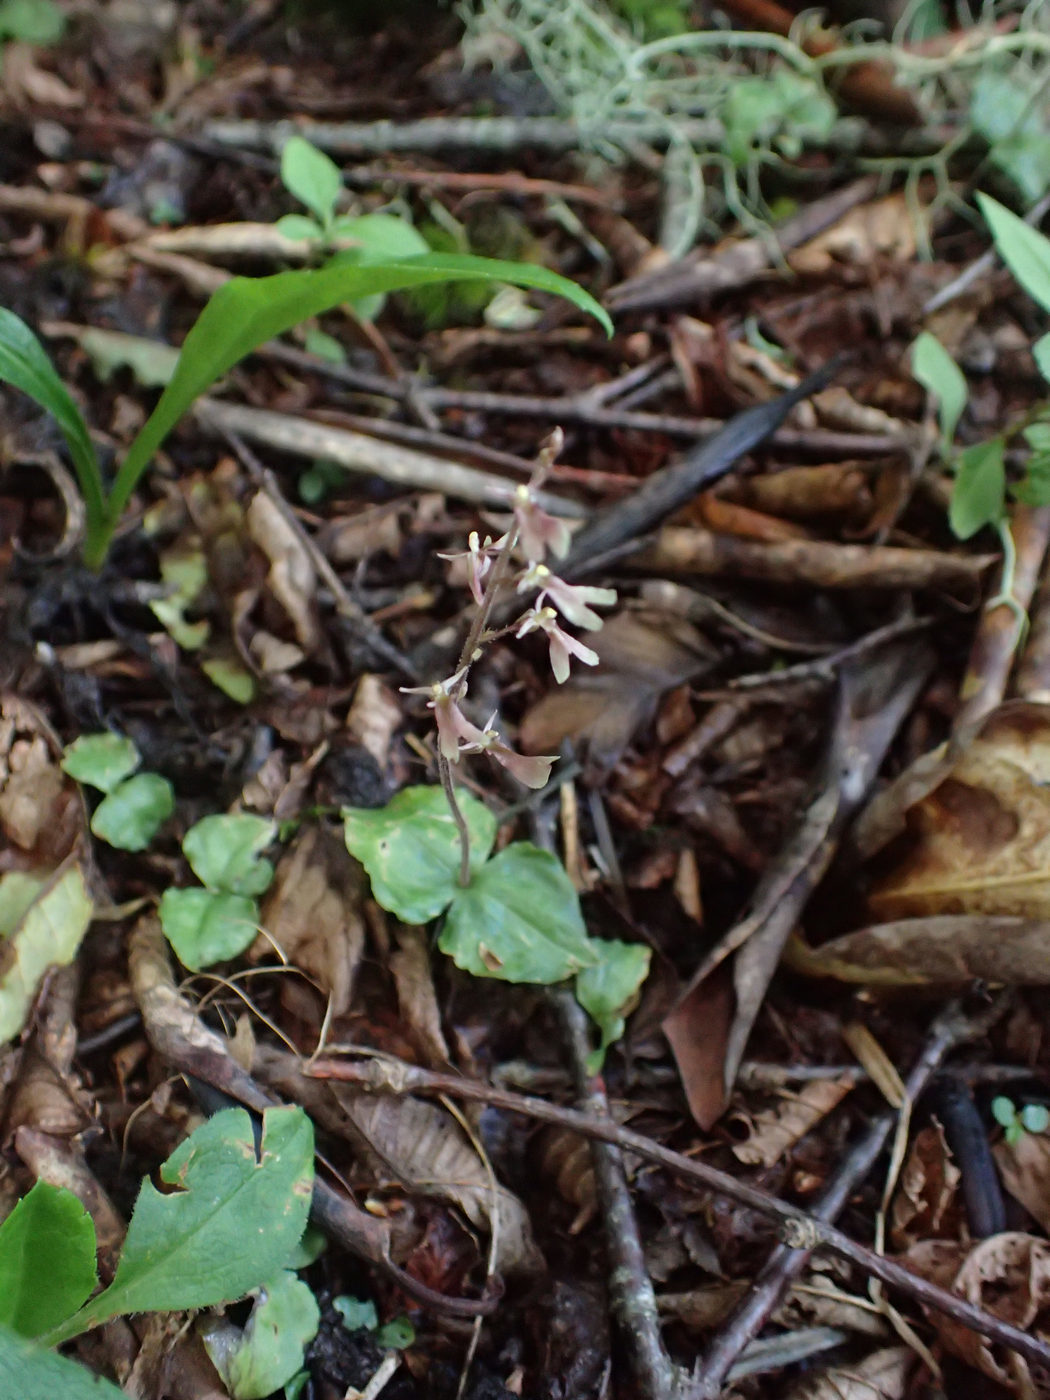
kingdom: Plantae
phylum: Tracheophyta
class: Liliopsida
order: Asparagales
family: Orchidaceae
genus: Neottia
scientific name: Neottia smallii
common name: Kidneyleaf twayblade
